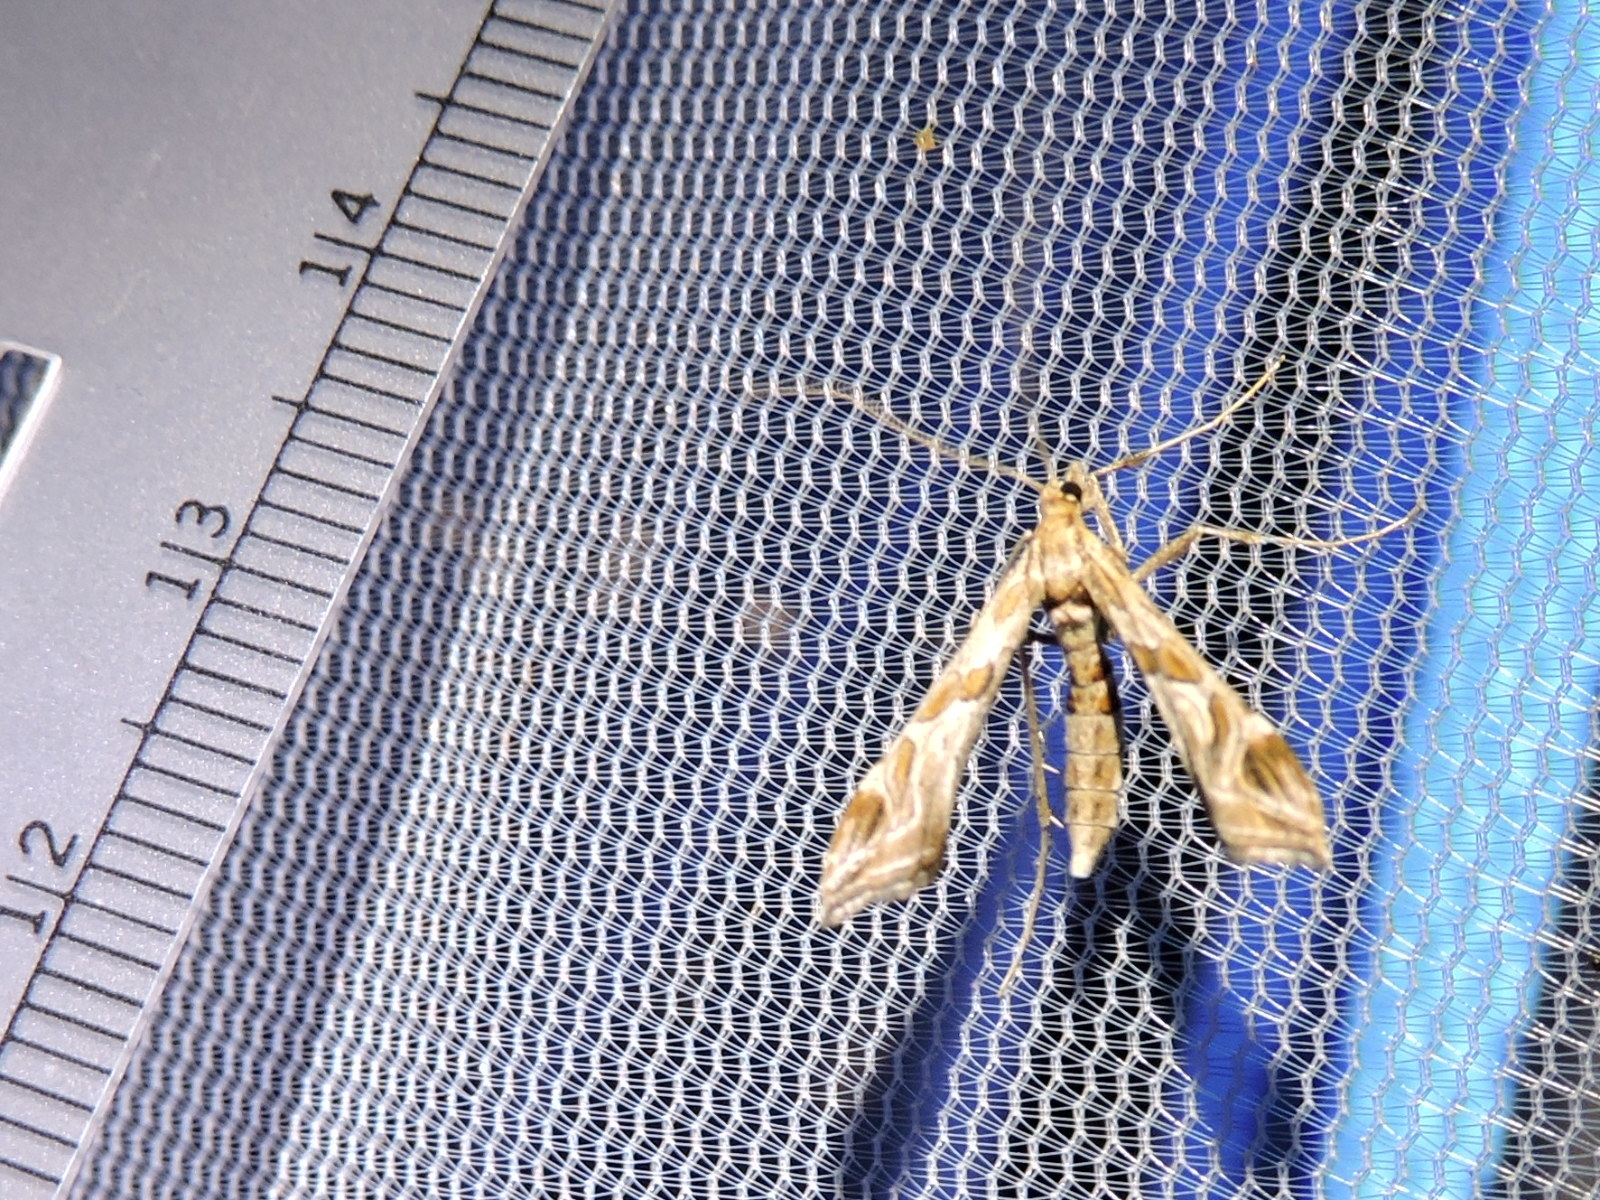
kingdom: Animalia
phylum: Arthropoda
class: Insecta
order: Lepidoptera
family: Crambidae
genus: Lineodes
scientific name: Lineodes interrupta
